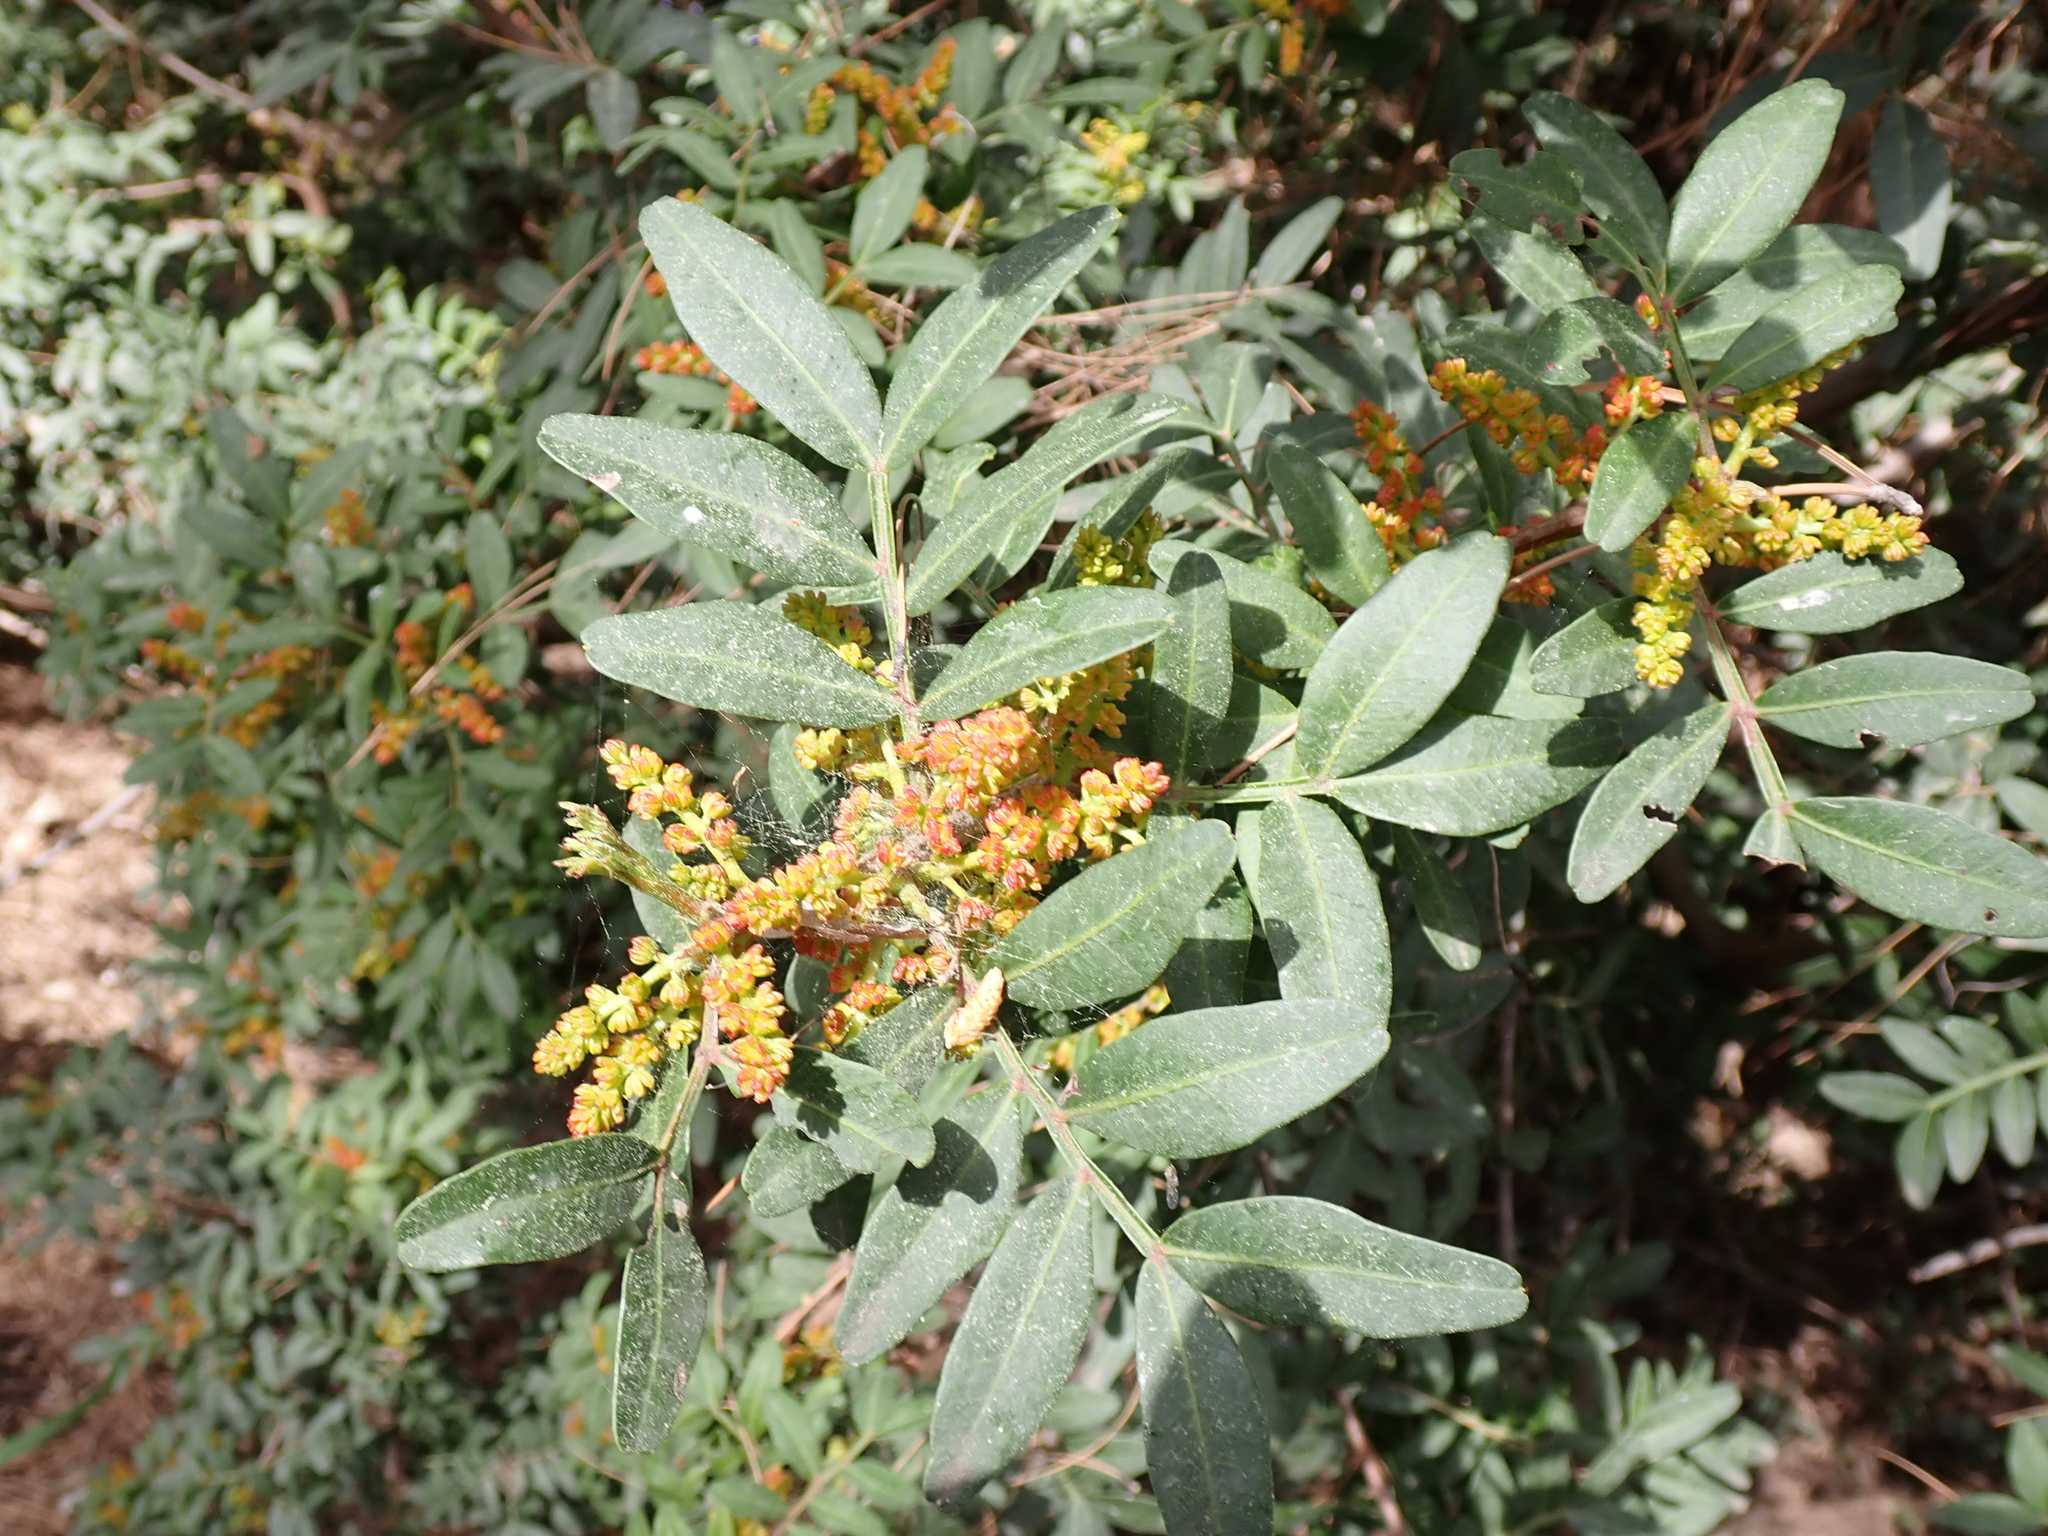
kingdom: Plantae
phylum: Tracheophyta
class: Magnoliopsida
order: Sapindales
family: Anacardiaceae
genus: Pistacia
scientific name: Pistacia lentiscus
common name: Lentisk
